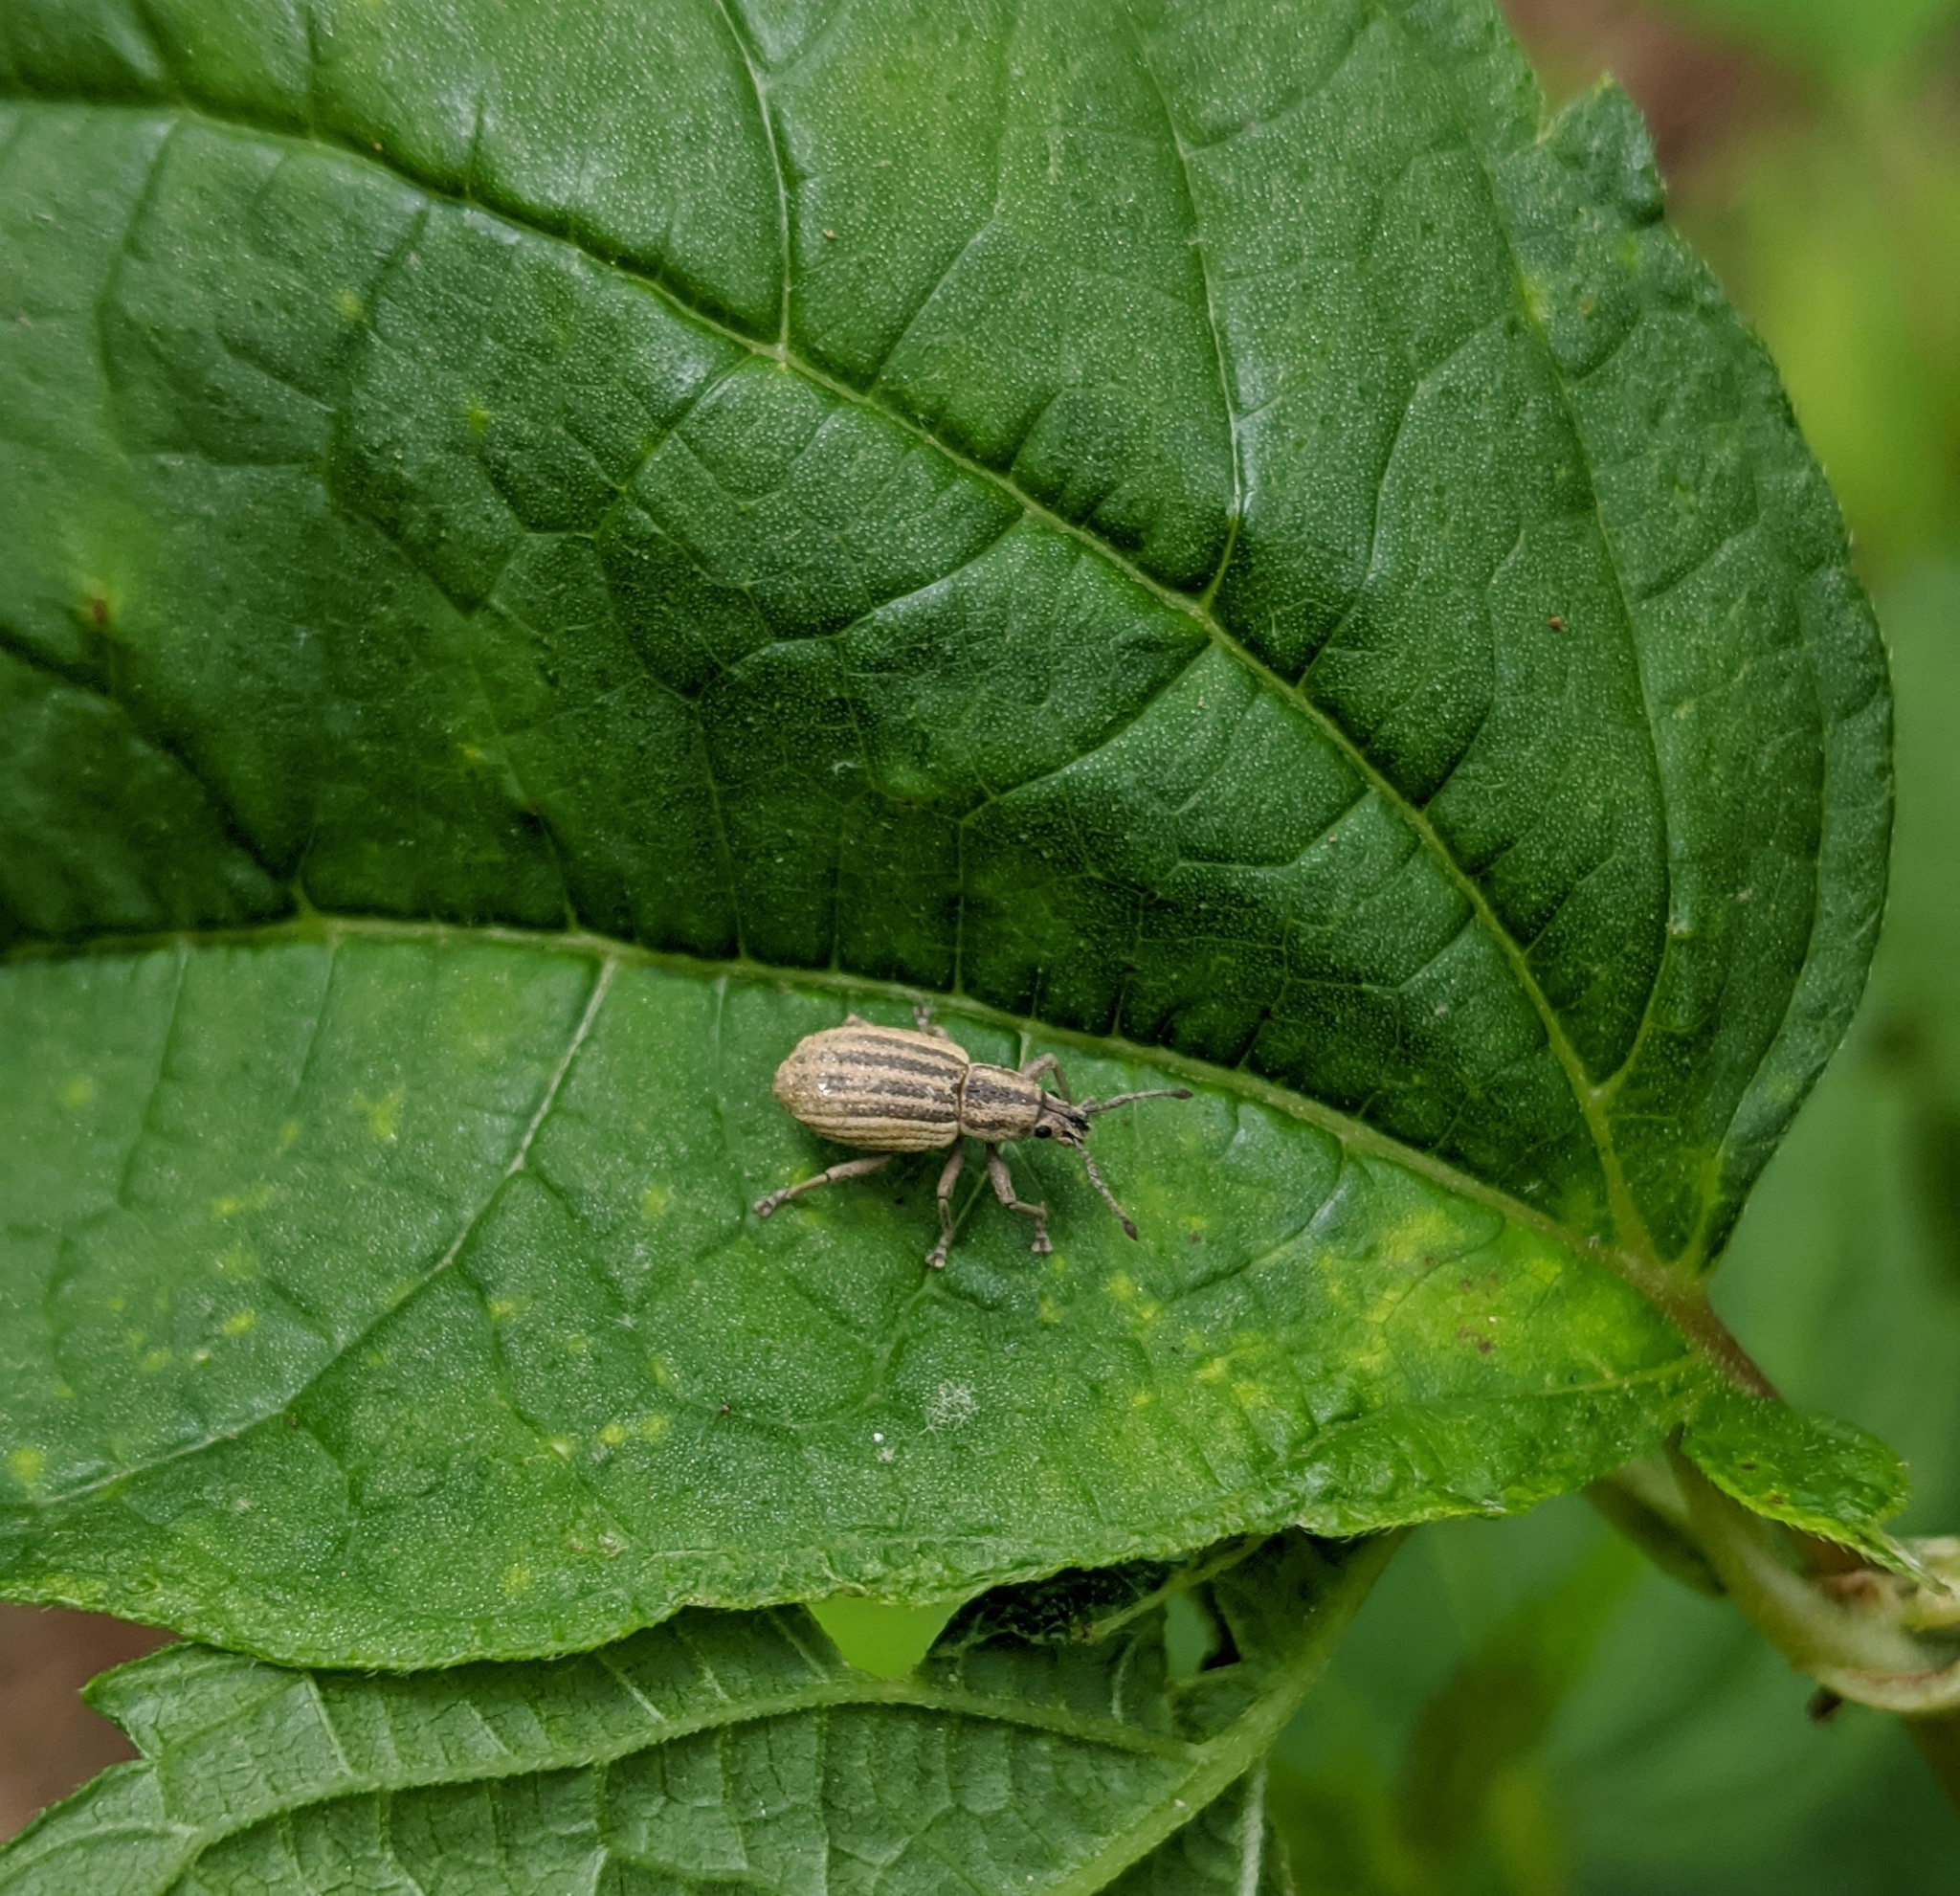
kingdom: Animalia
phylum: Arthropoda
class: Insecta
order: Coleoptera
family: Curculionidae
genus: Aphrastus
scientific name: Aphrastus taeniatus
